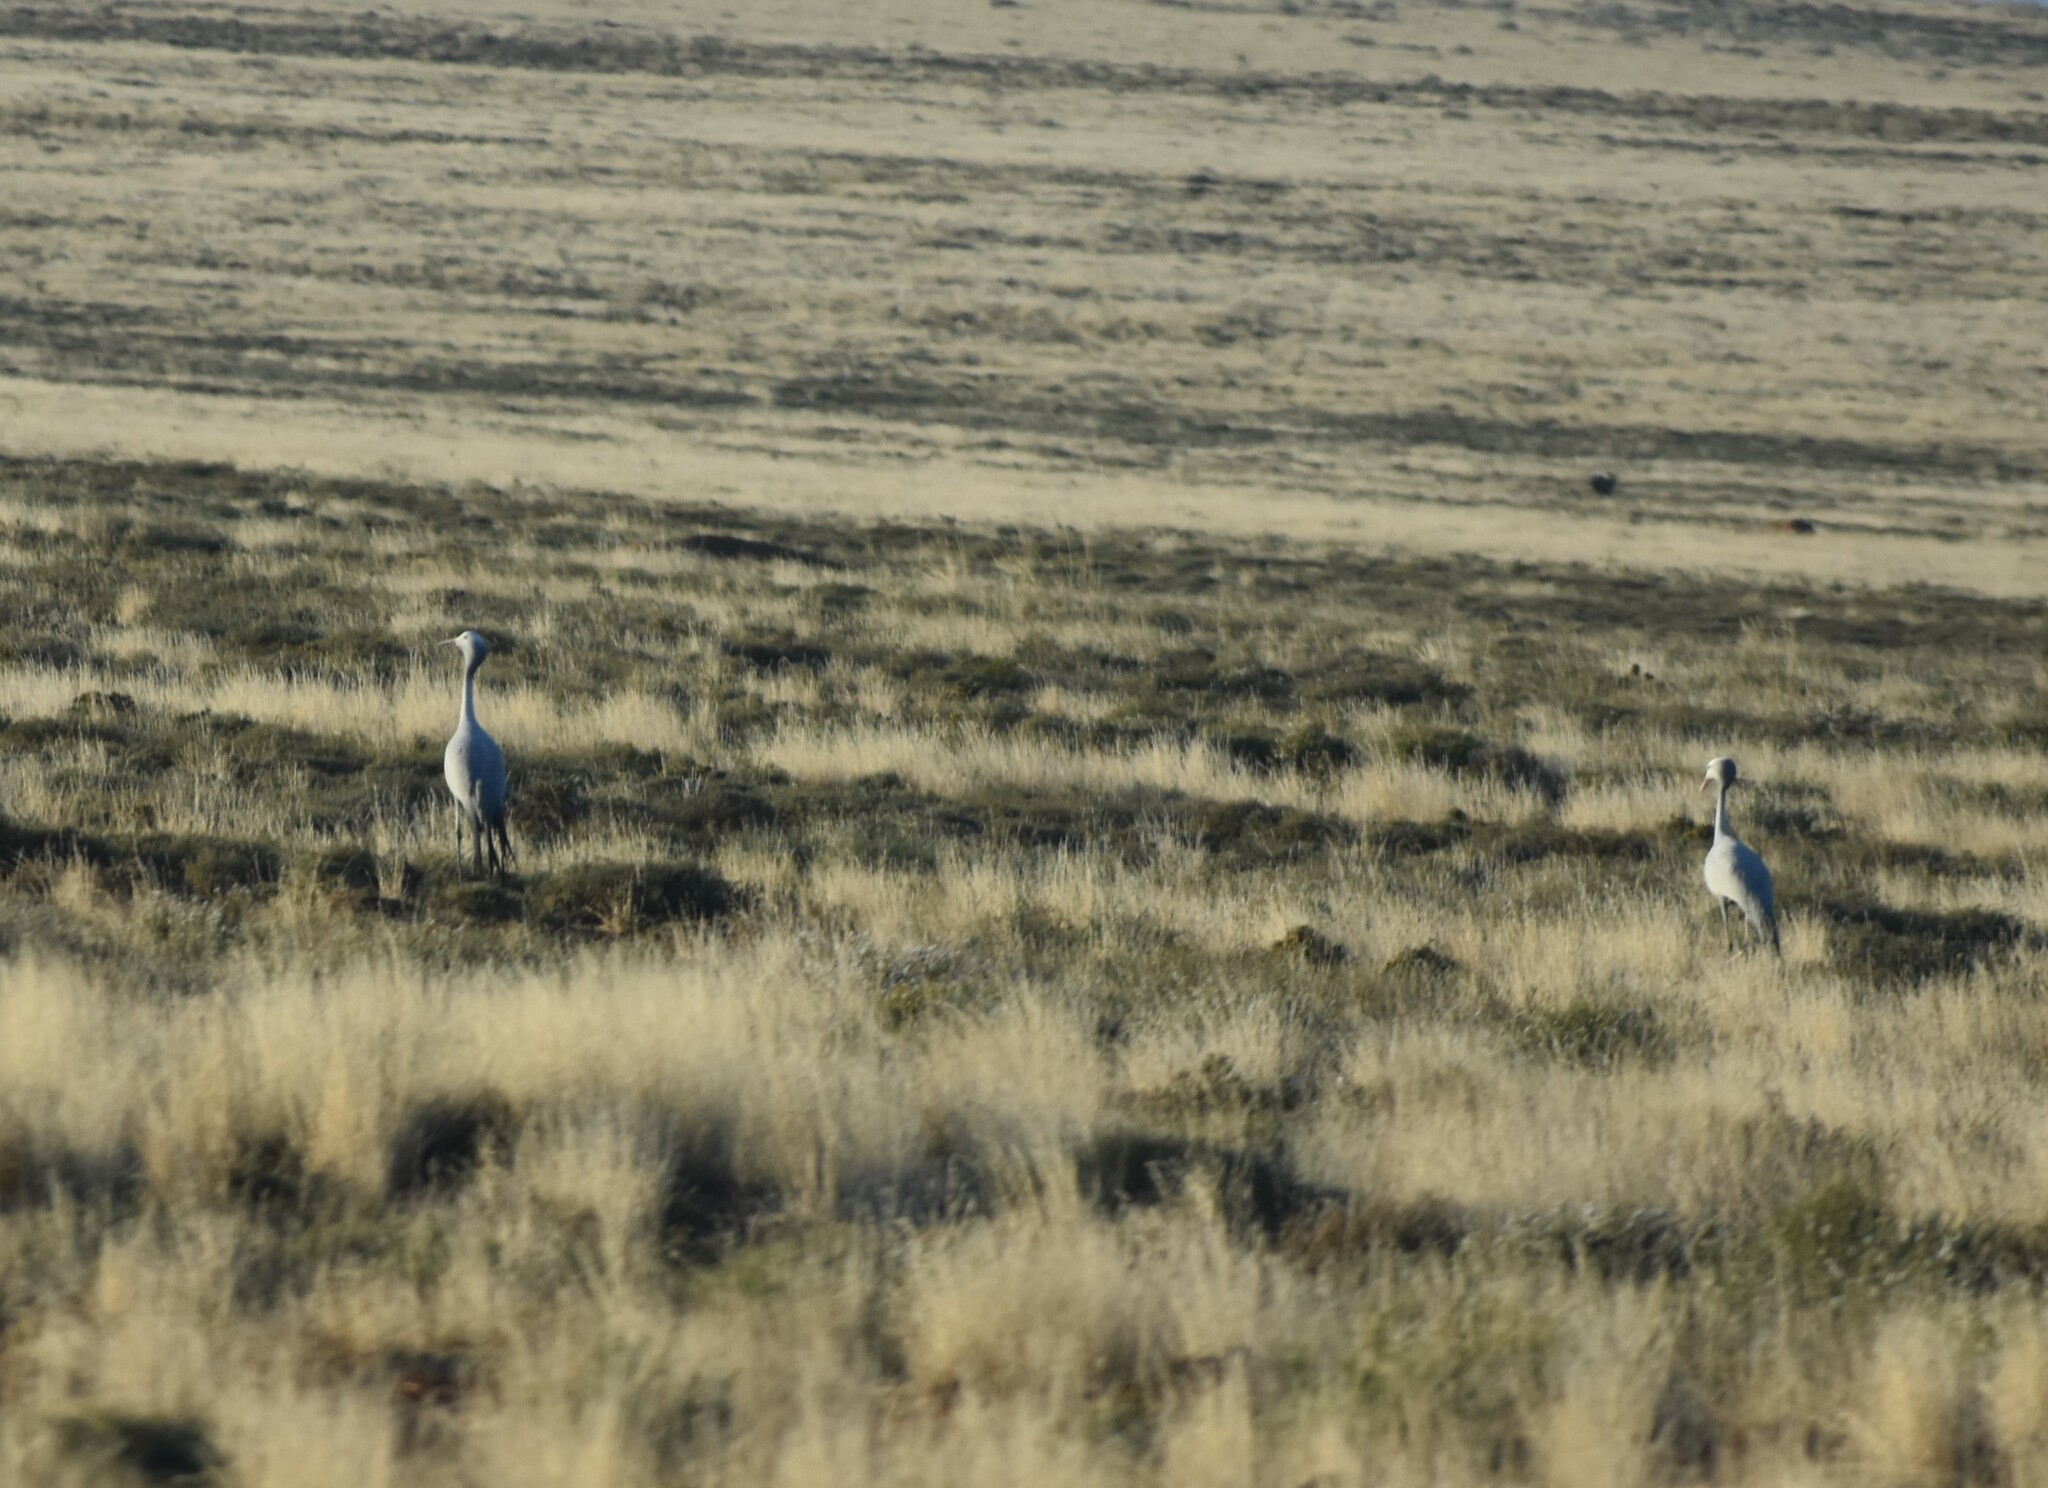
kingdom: Animalia
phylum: Chordata
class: Aves
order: Gruiformes
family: Gruidae
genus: Anthropoides
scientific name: Anthropoides paradiseus
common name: Blue crane
